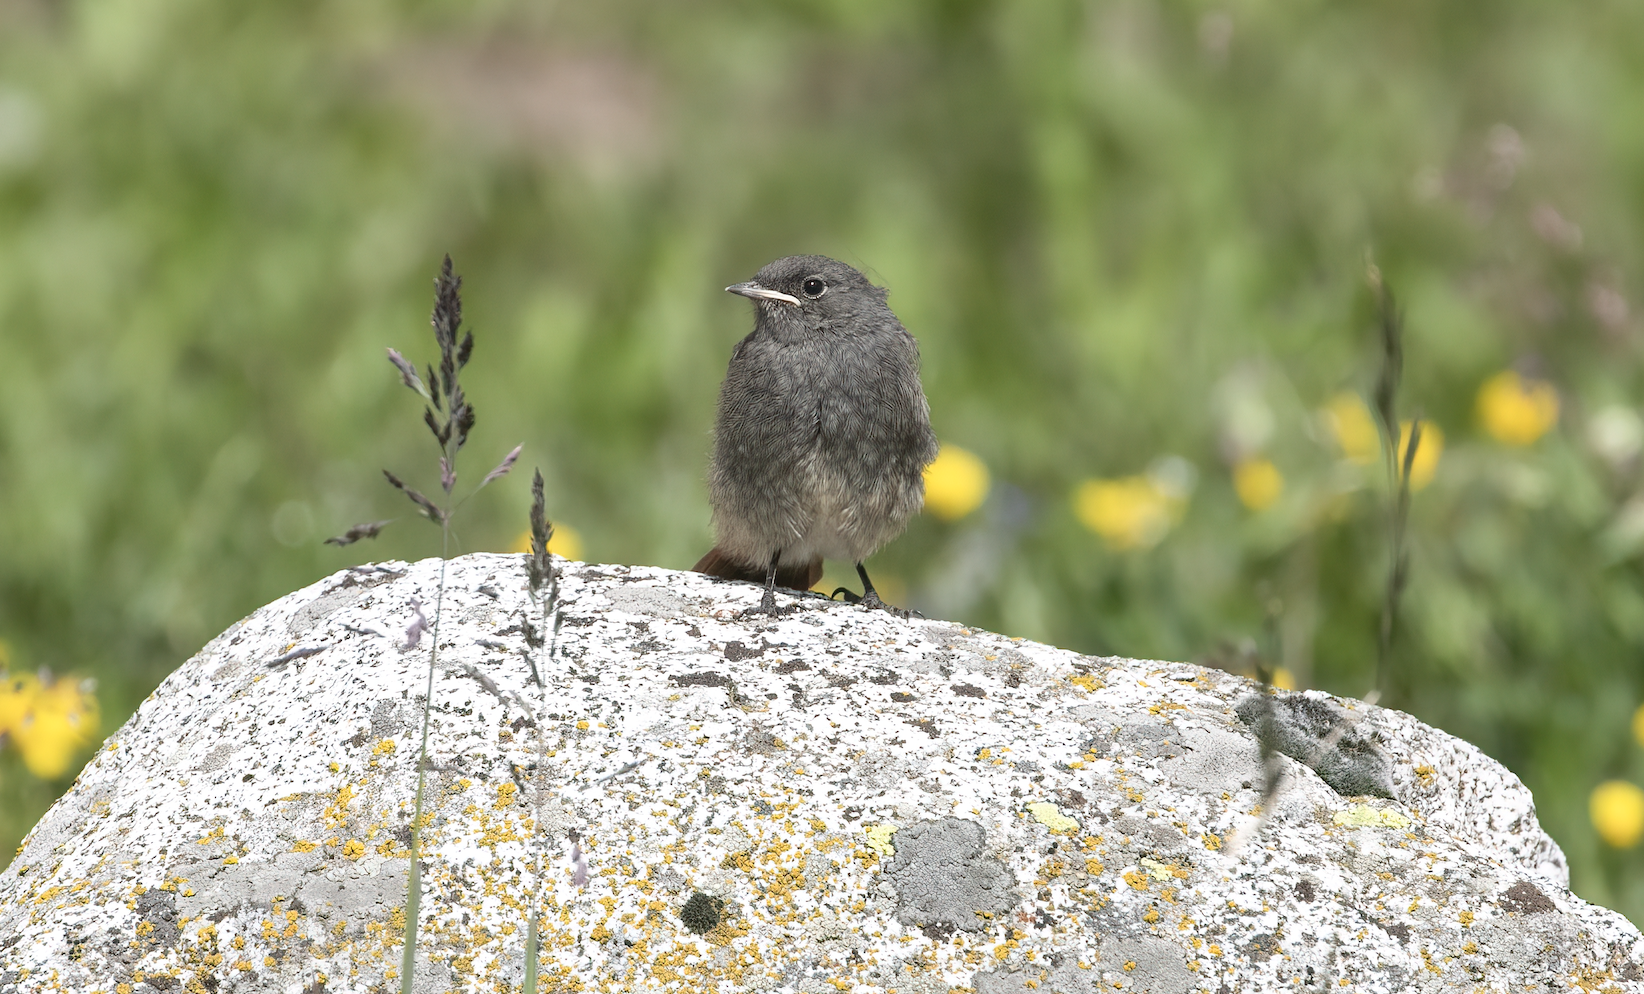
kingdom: Animalia
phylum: Chordata
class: Aves
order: Passeriformes
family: Muscicapidae
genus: Phoenicurus
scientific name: Phoenicurus ochruros
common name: Black redstart
